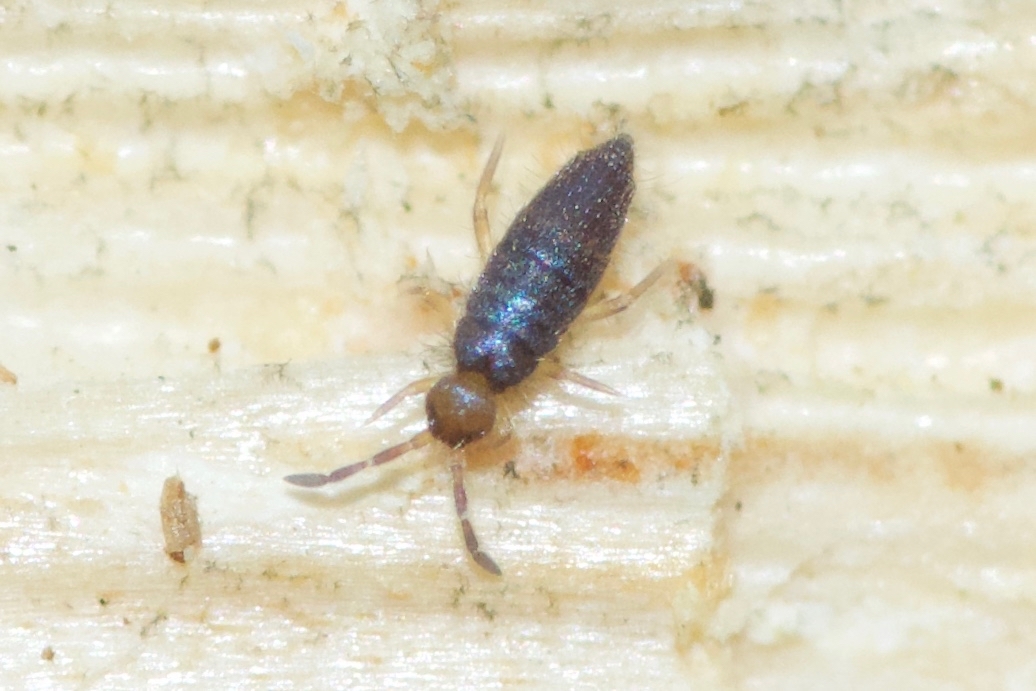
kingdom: Animalia
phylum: Arthropoda
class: Collembola
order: Entomobryomorpha
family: Entomobryidae
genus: Willowsia
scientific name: Willowsia buski
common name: Damp grain springtail
